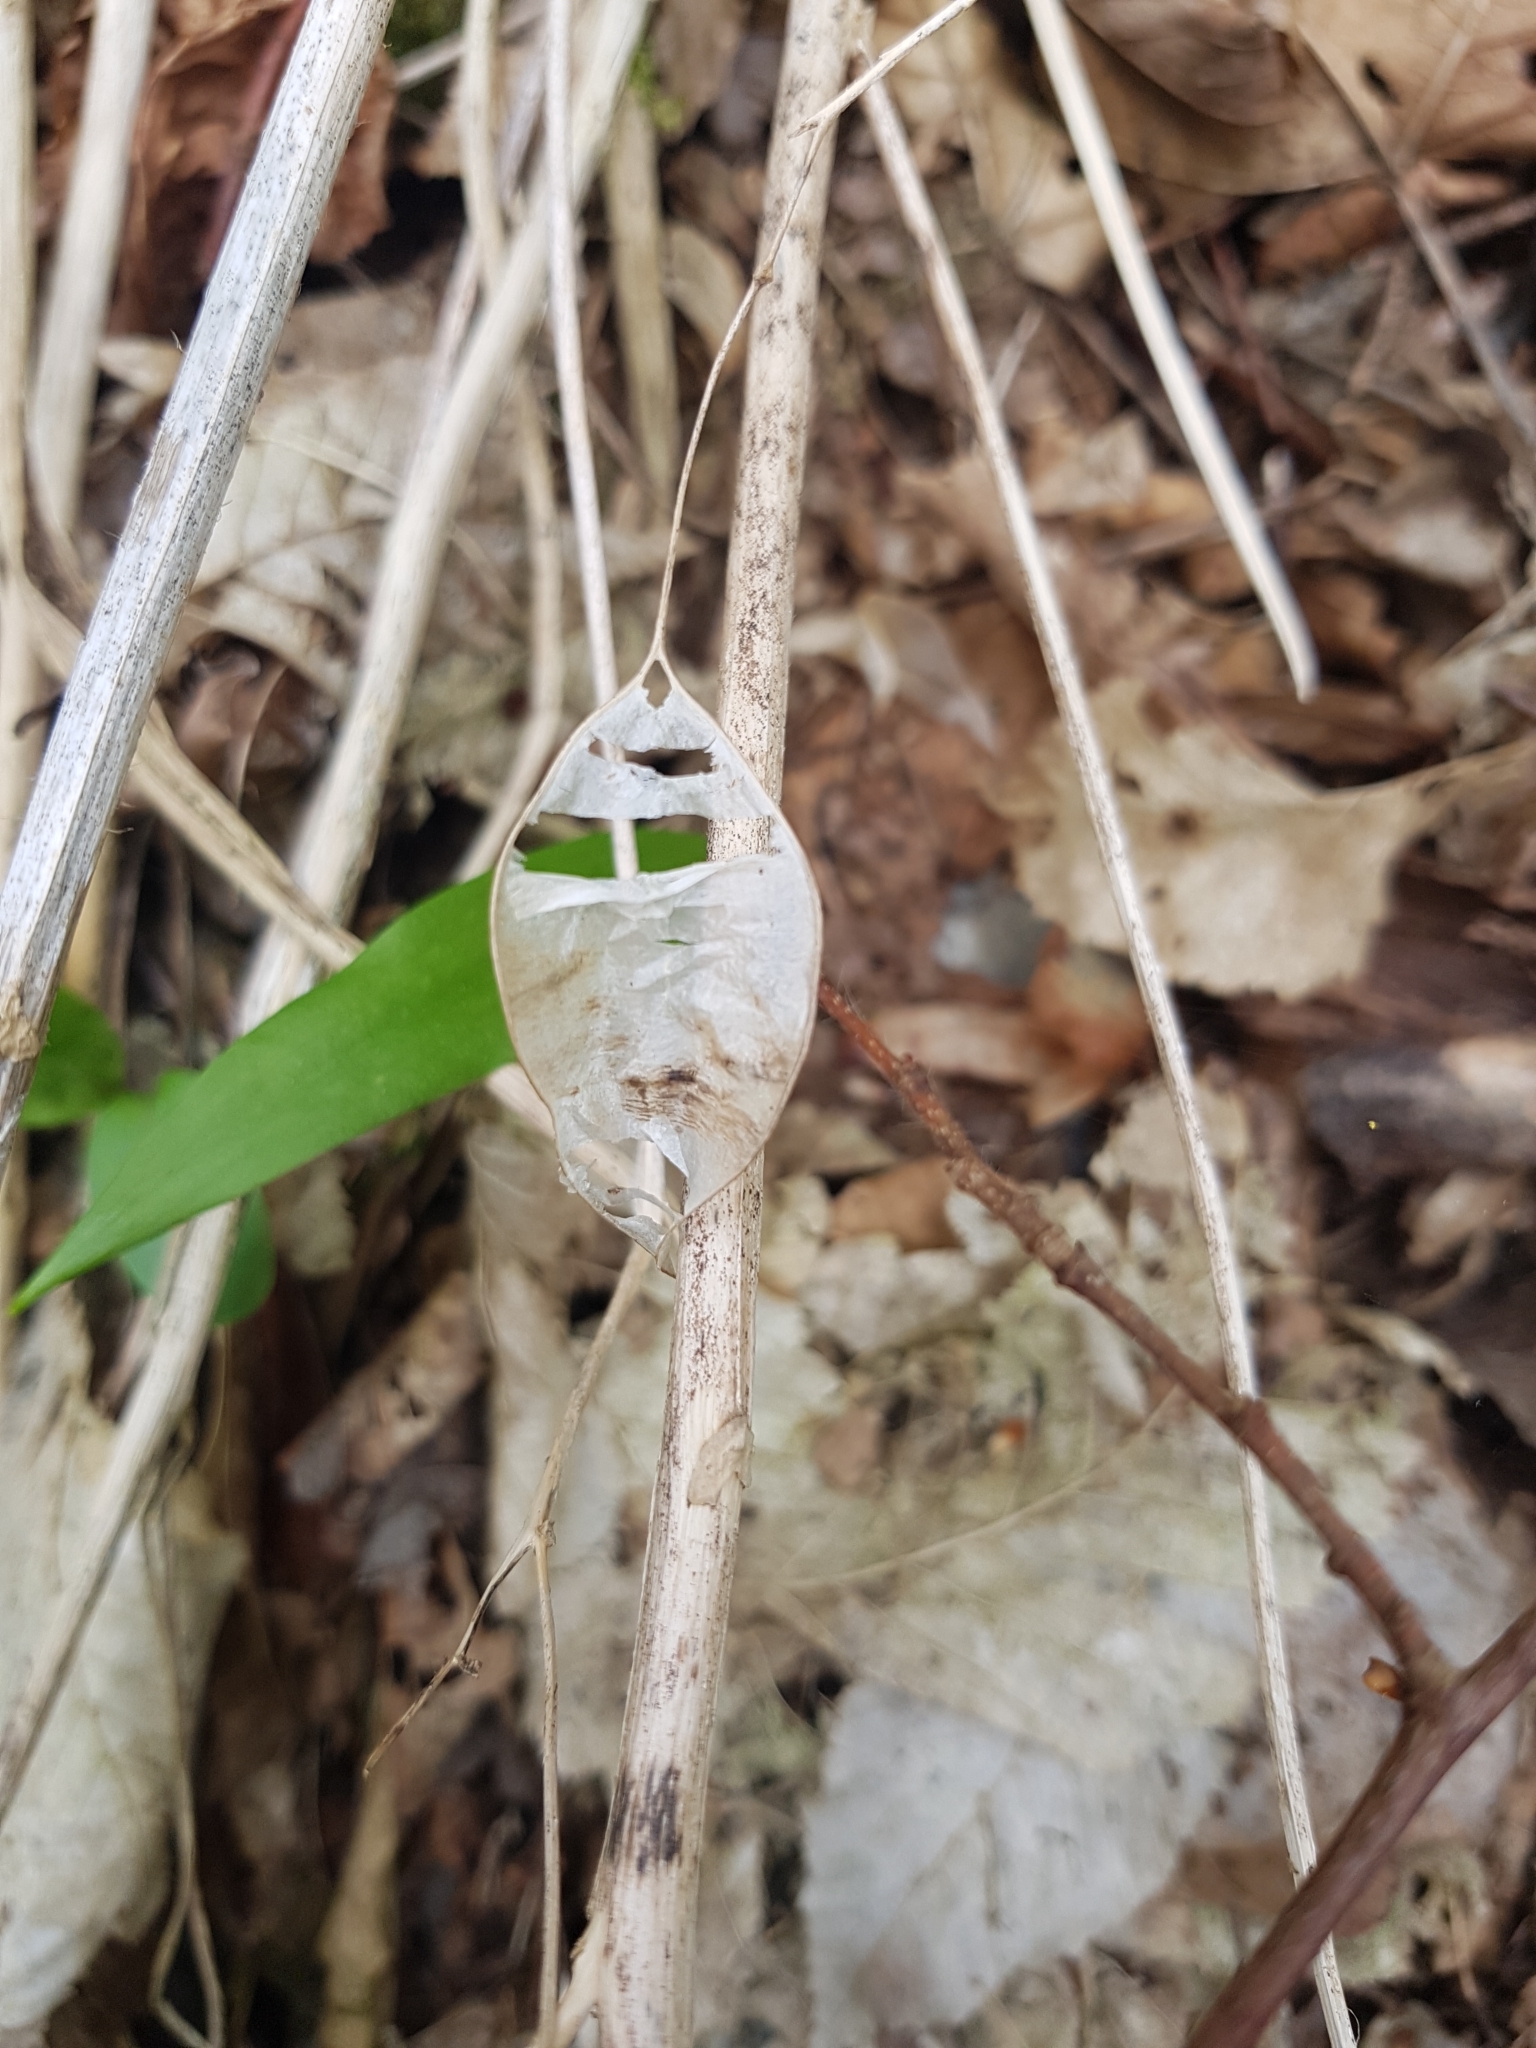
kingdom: Plantae
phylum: Tracheophyta
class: Magnoliopsida
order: Brassicales
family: Brassicaceae
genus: Lunaria
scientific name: Lunaria rediviva
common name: Perennial honesty
